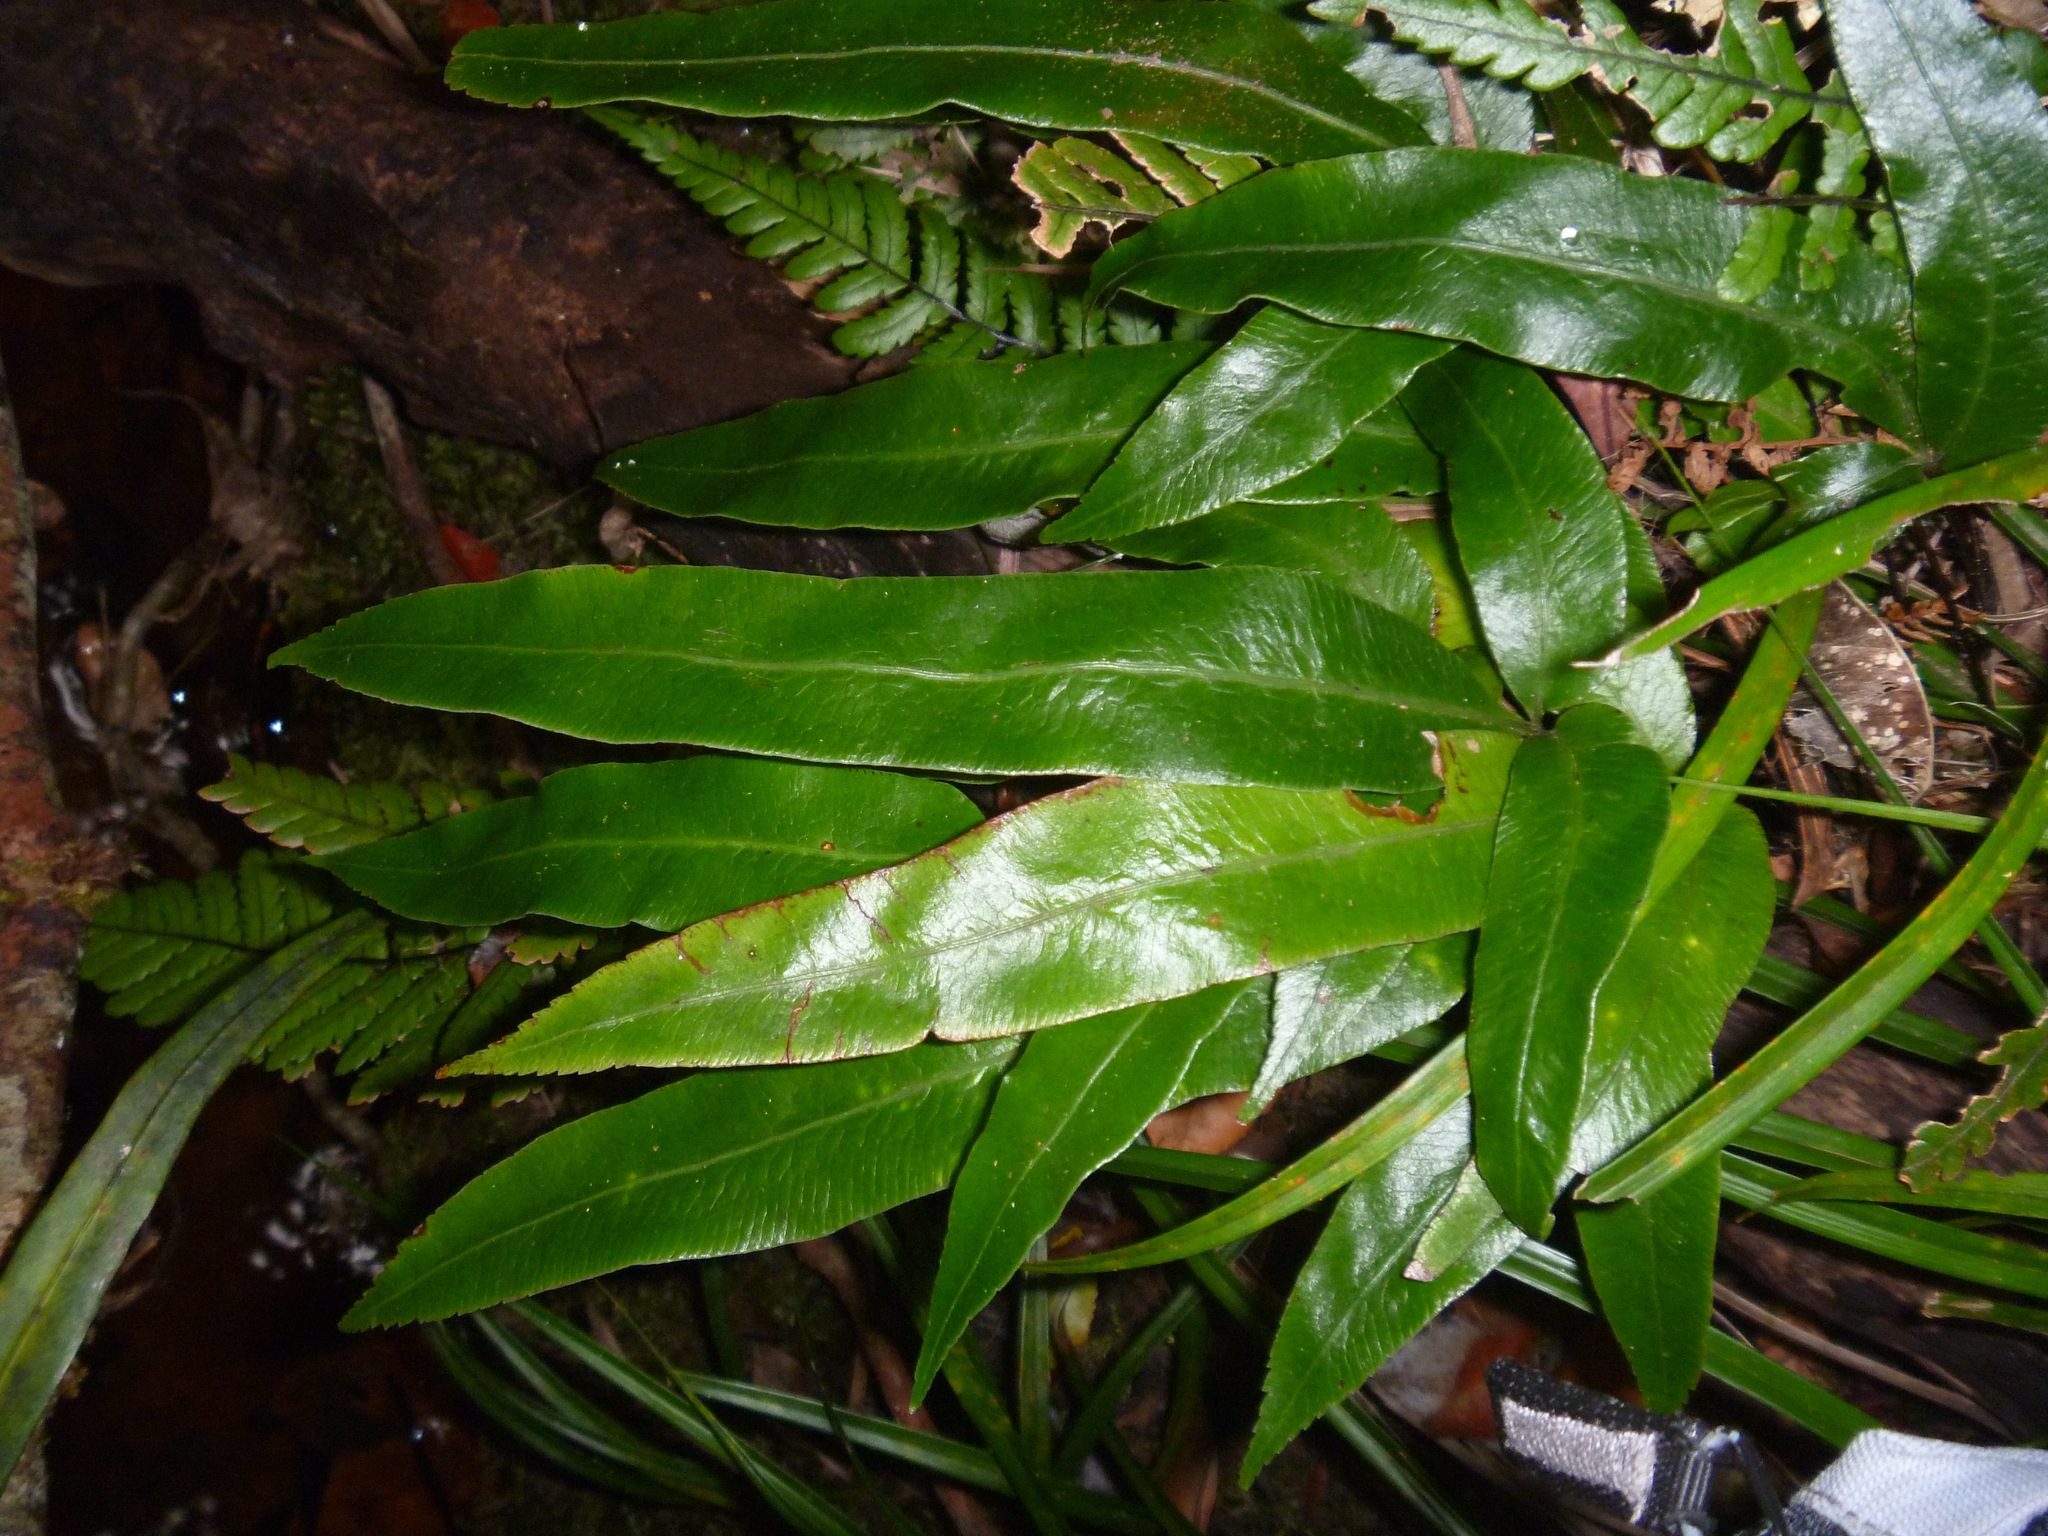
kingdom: Plantae
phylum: Tracheophyta
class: Polypodiopsida
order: Polypodiales
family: Pteridaceae
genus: Pteris
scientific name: Pteris vieillardii
